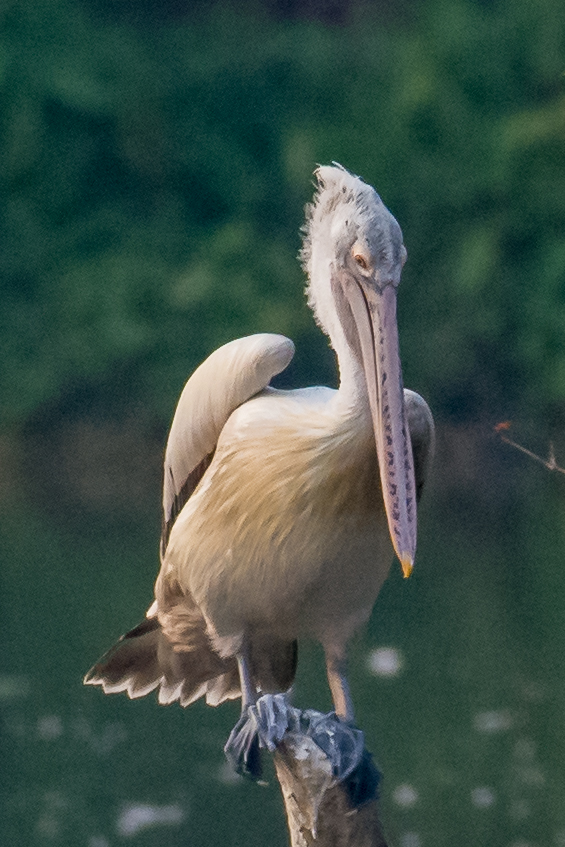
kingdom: Animalia
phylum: Chordata
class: Aves
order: Pelecaniformes
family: Pelecanidae
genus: Pelecanus
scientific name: Pelecanus philippensis
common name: Spot-billed pelican
